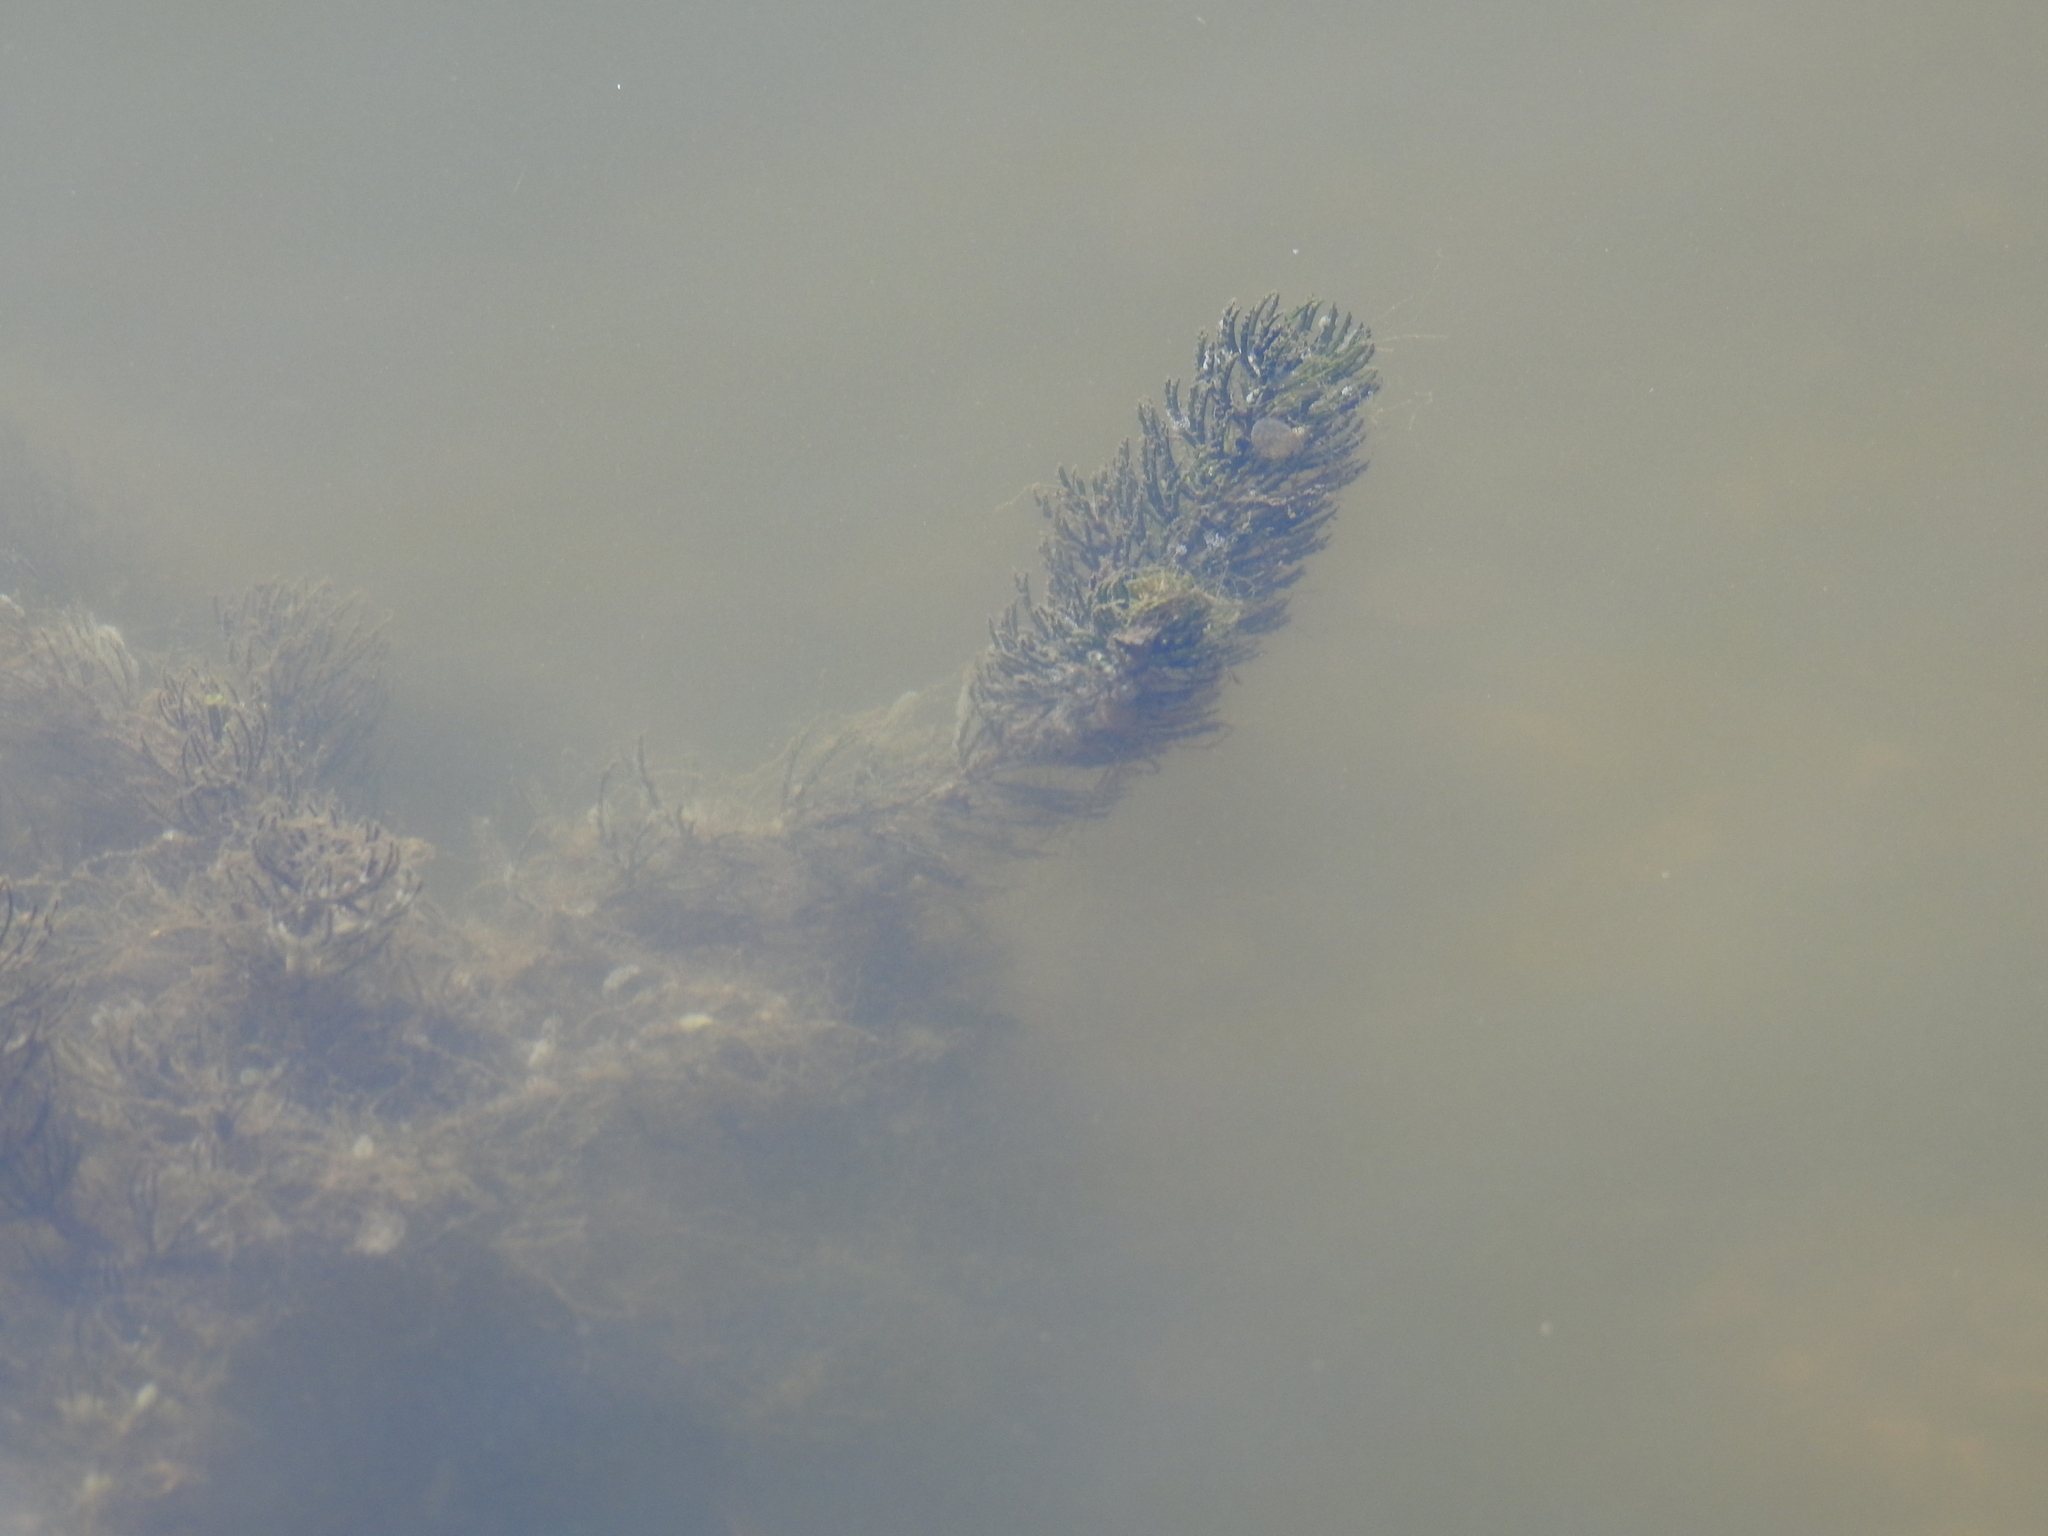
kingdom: Plantae
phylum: Tracheophyta
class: Magnoliopsida
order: Ceratophyllales
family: Ceratophyllaceae
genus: Ceratophyllum
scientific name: Ceratophyllum demersum
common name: Rigid hornwort
